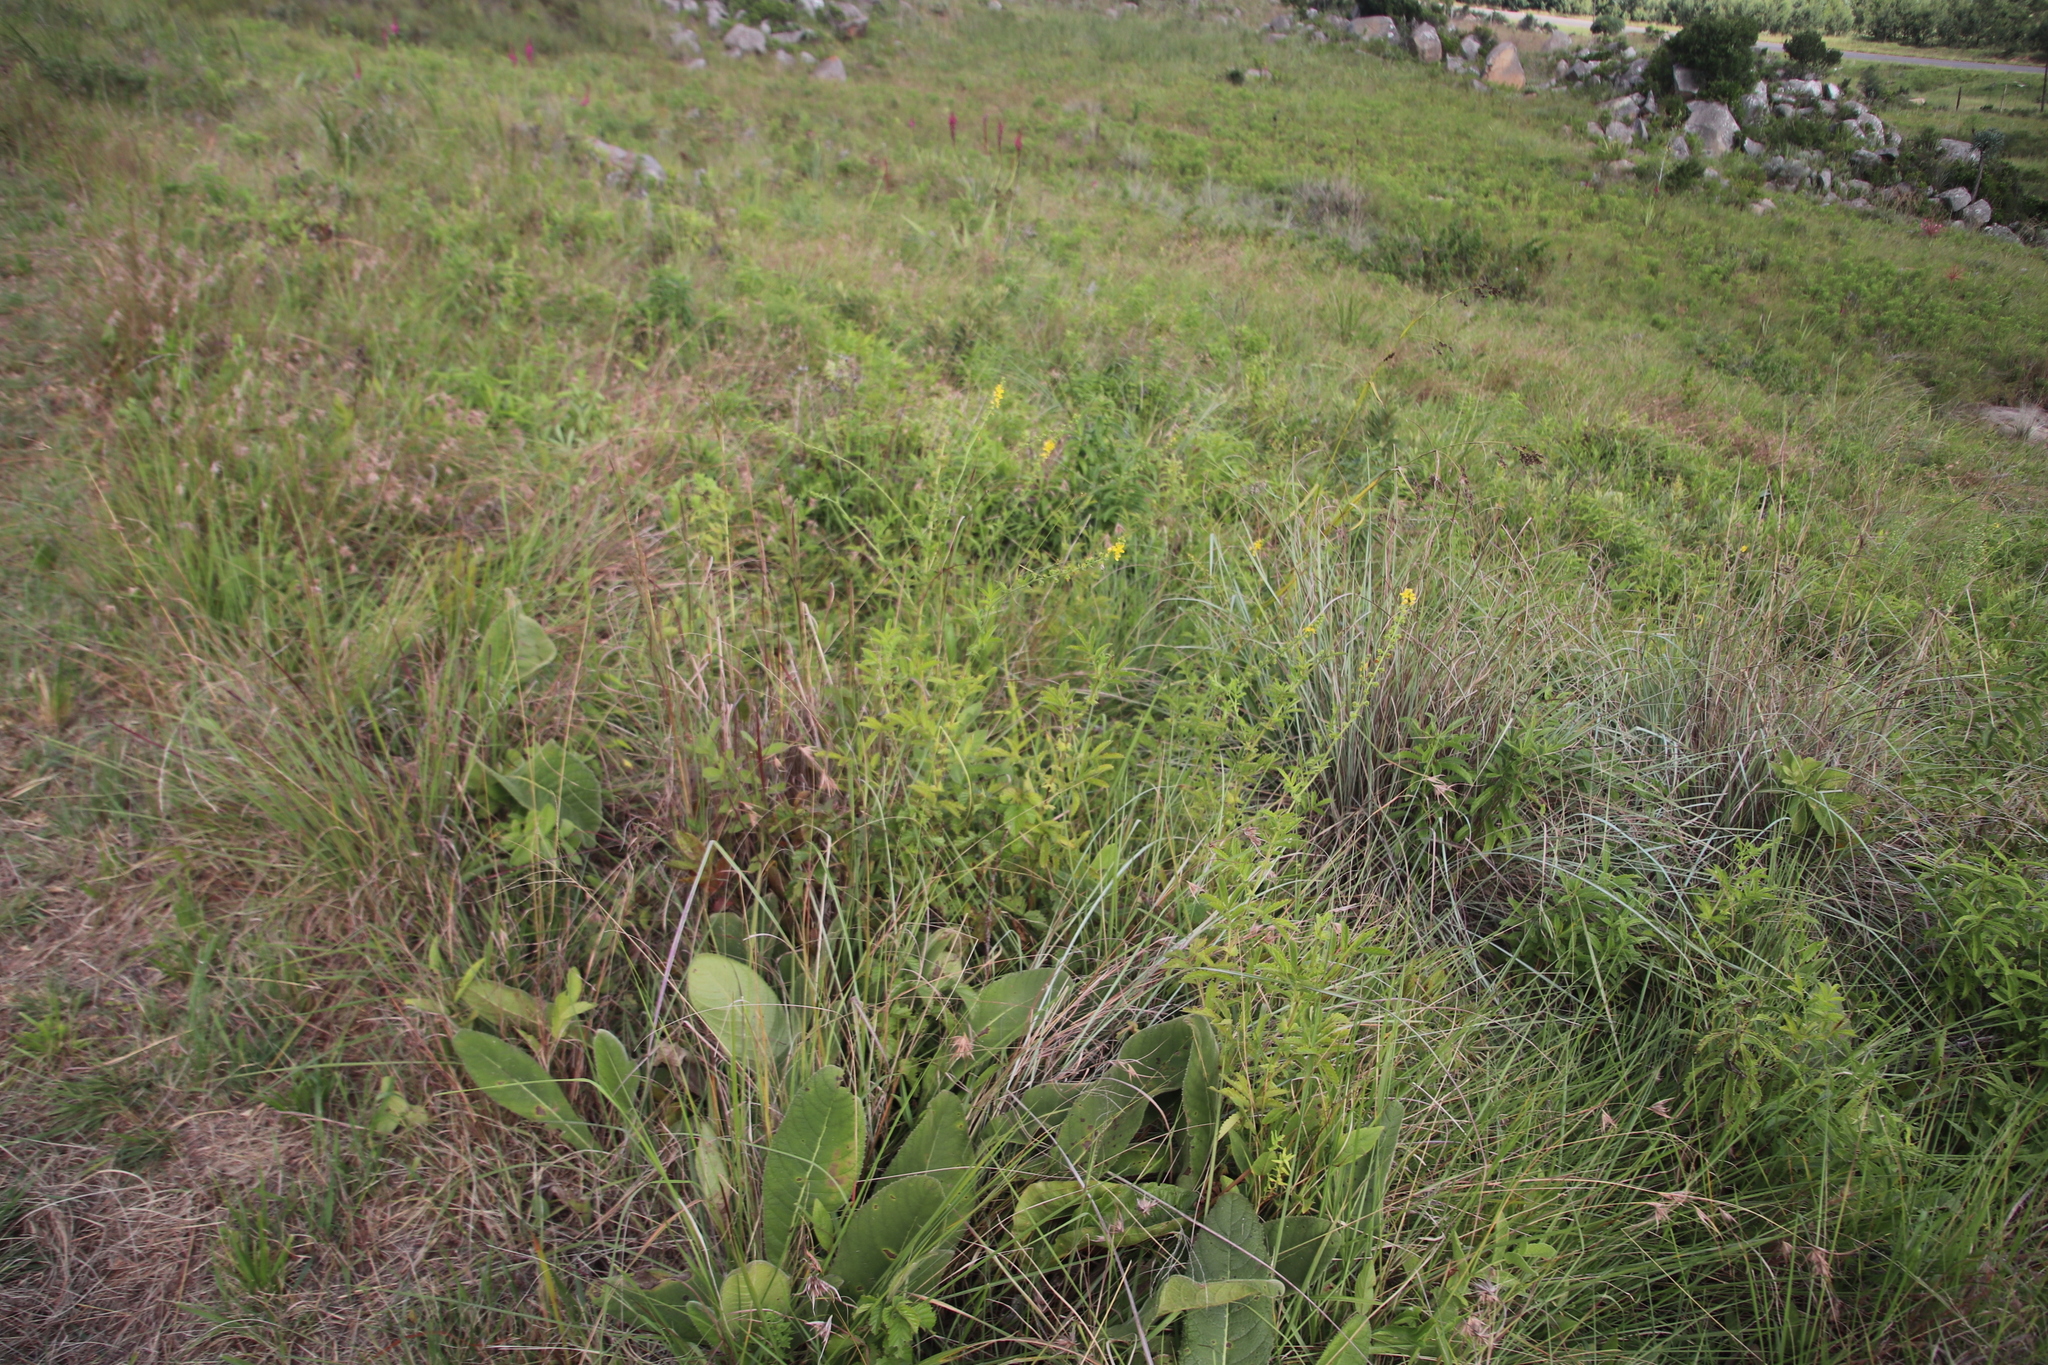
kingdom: Plantae
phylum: Tracheophyta
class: Magnoliopsida
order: Rosales
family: Rosaceae
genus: Agrimonia
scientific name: Agrimonia bracteata
